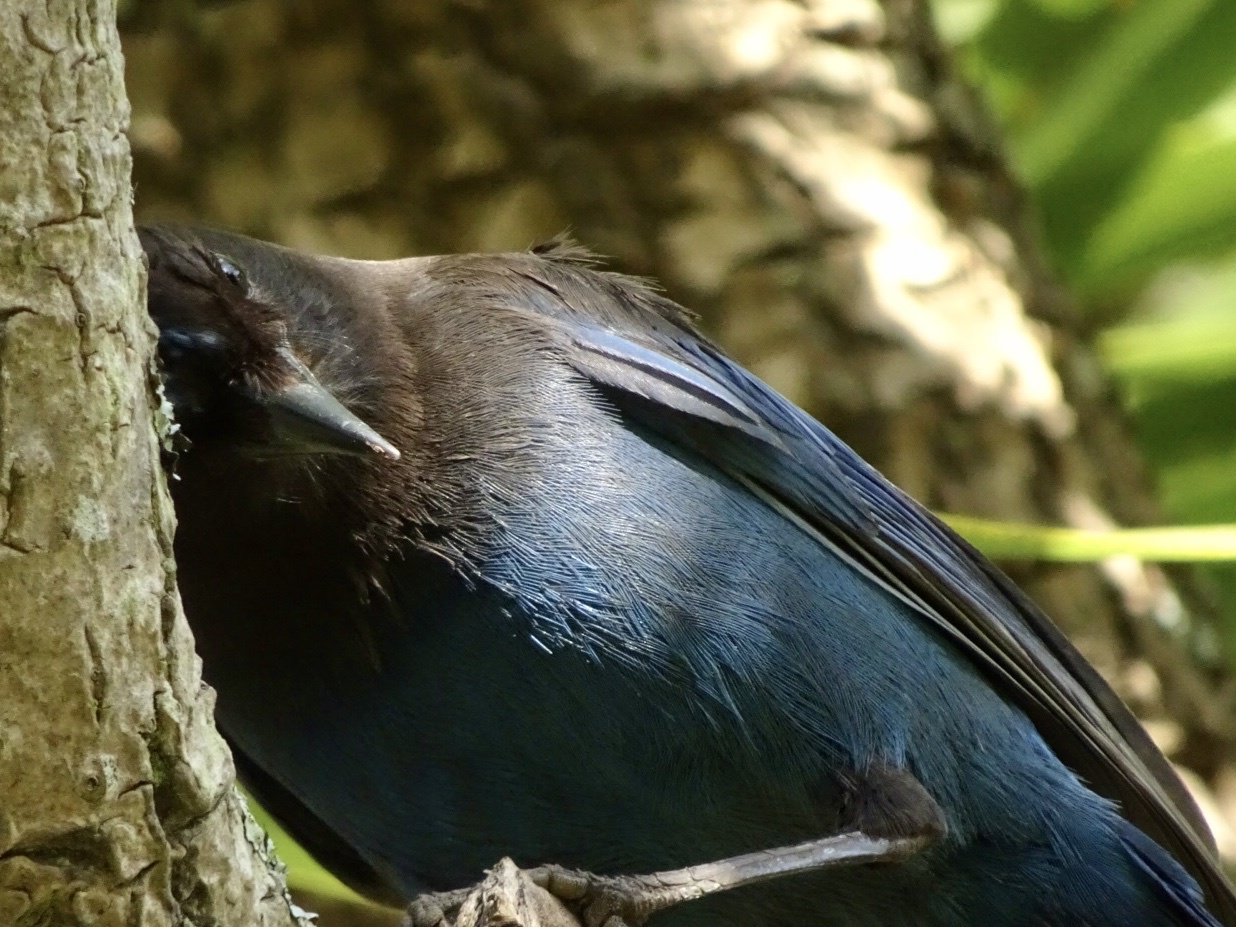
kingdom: Animalia
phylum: Chordata
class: Aves
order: Passeriformes
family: Corvidae
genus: Cyanocitta
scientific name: Cyanocitta stelleri
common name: Steller's jay
